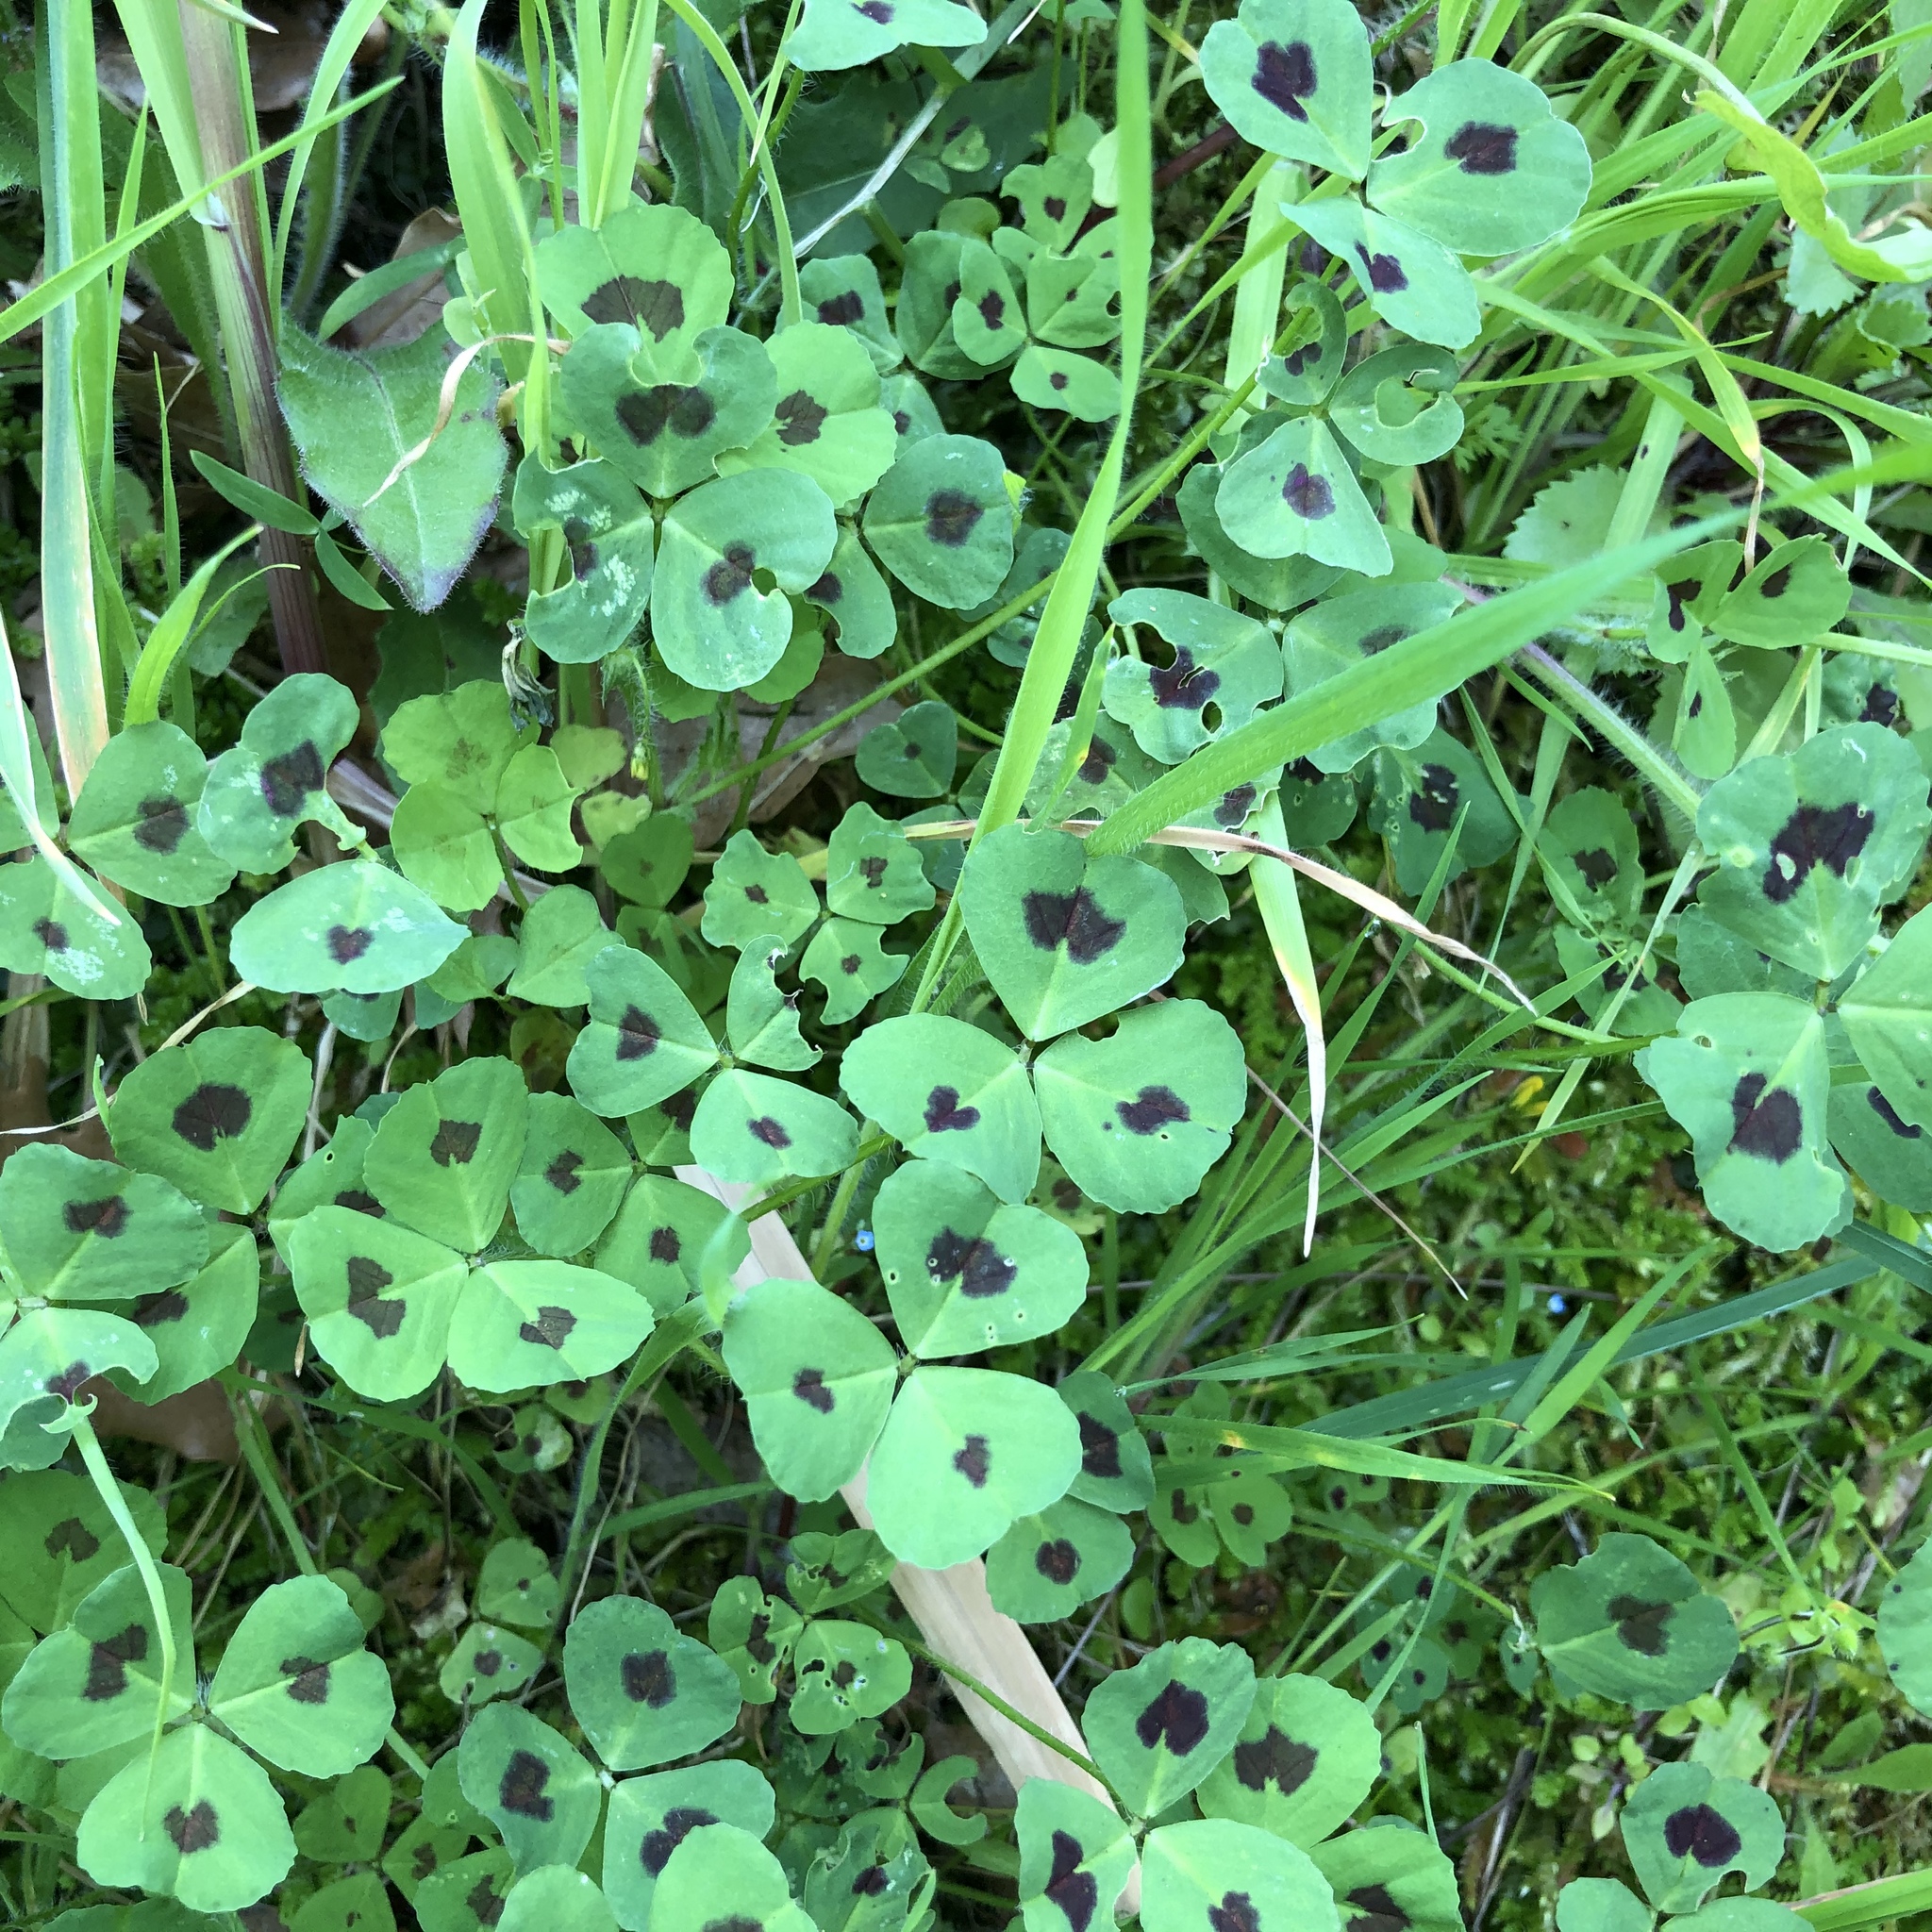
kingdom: Plantae
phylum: Tracheophyta
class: Magnoliopsida
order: Fabales
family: Fabaceae
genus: Medicago
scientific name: Medicago arabica
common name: Spotted medick
